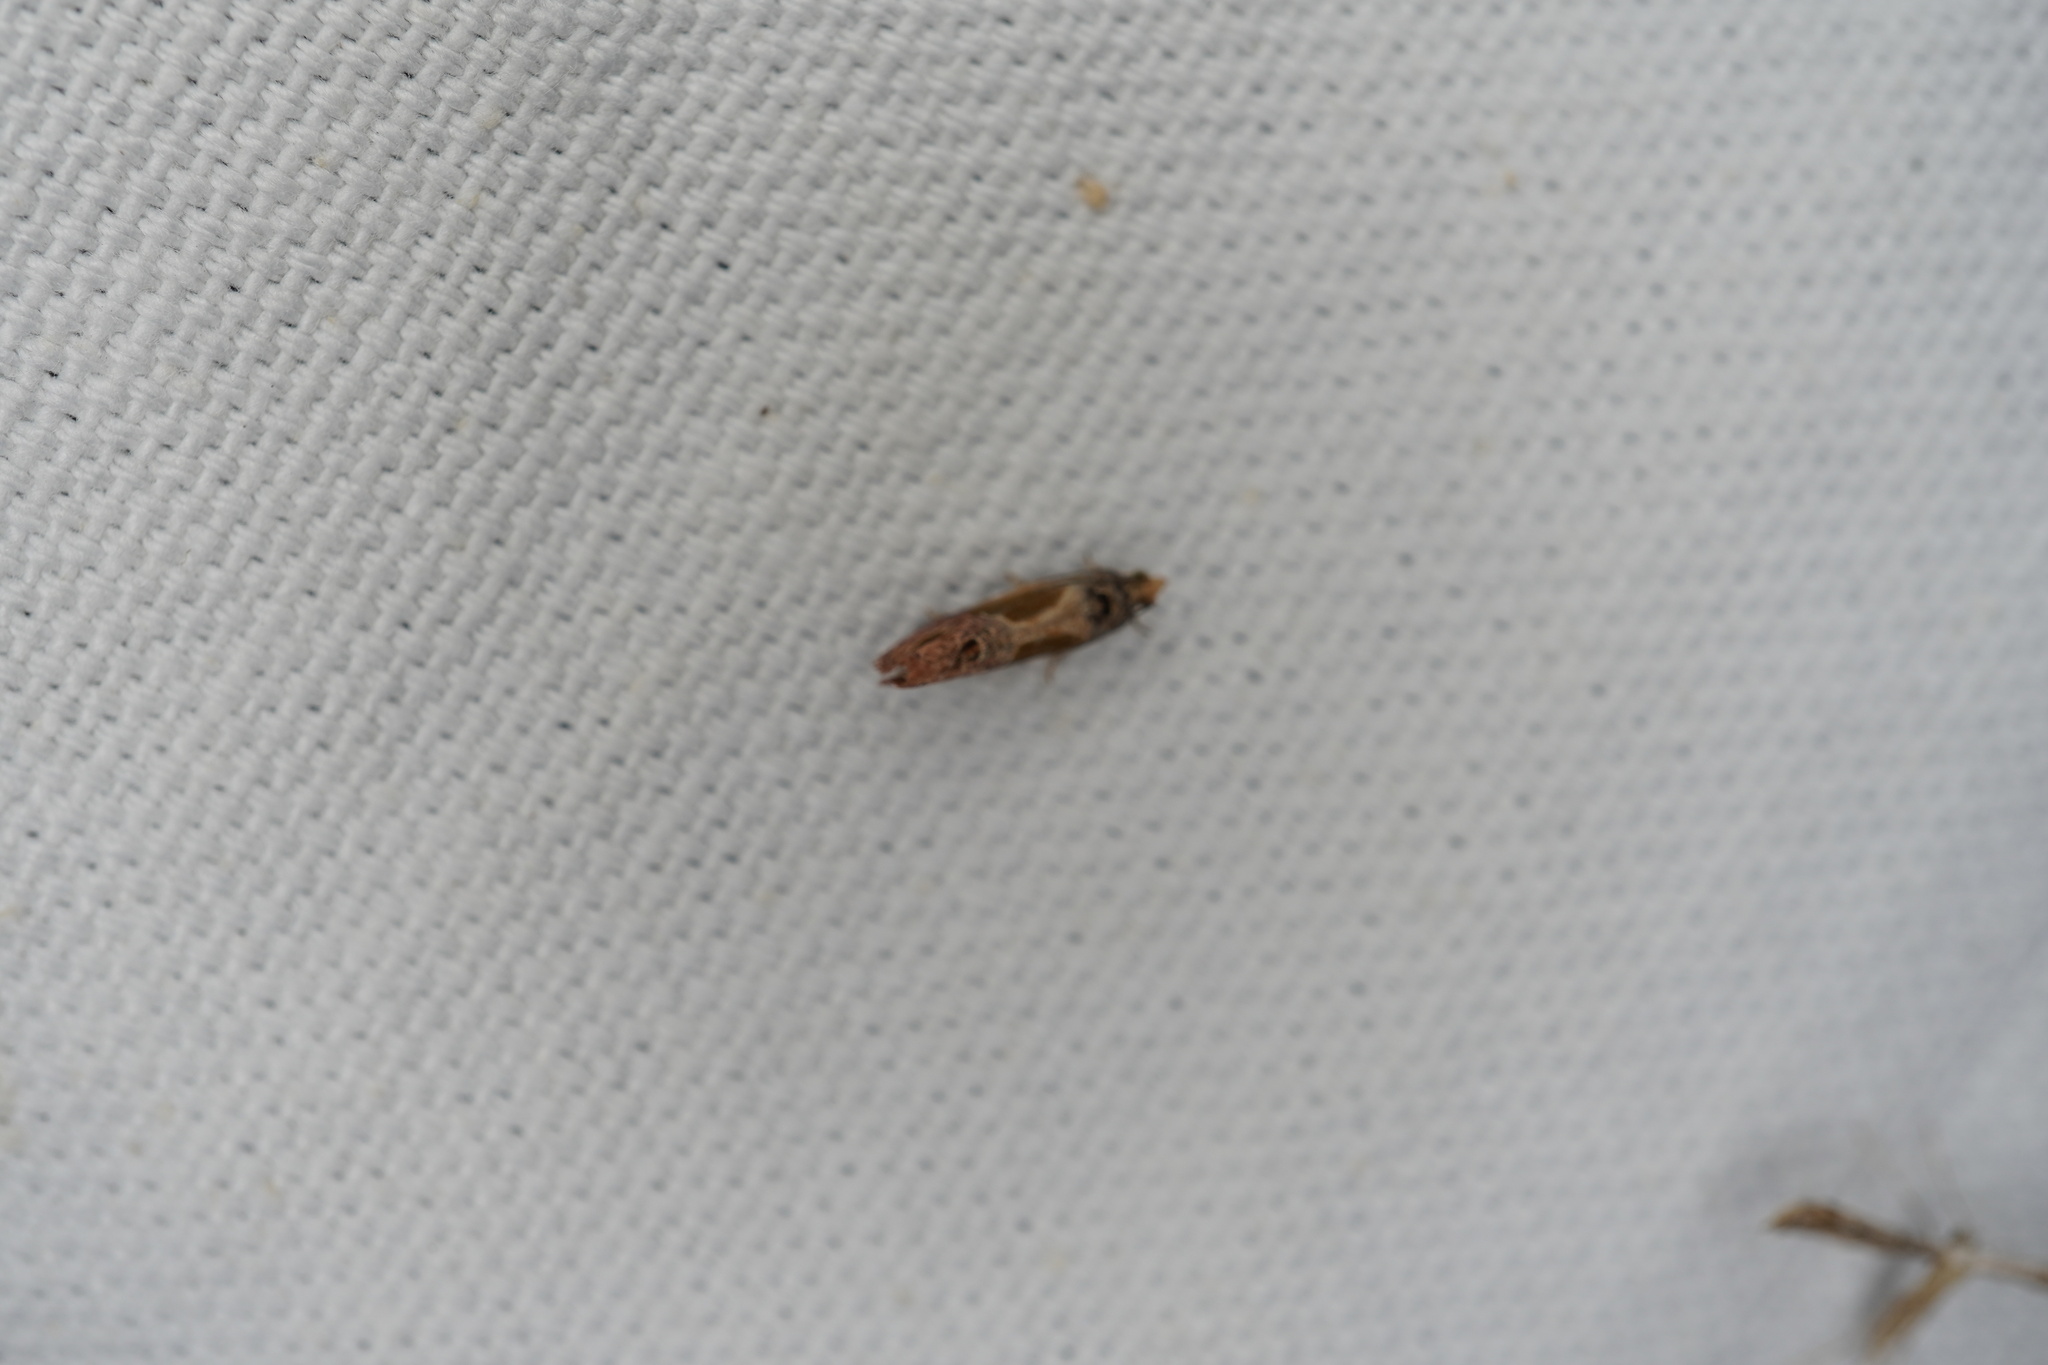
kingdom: Animalia
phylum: Arthropoda
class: Insecta
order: Lepidoptera
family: Tortricidae
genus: Eumarozia
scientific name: Eumarozia malachitana
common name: Sculptured moth
